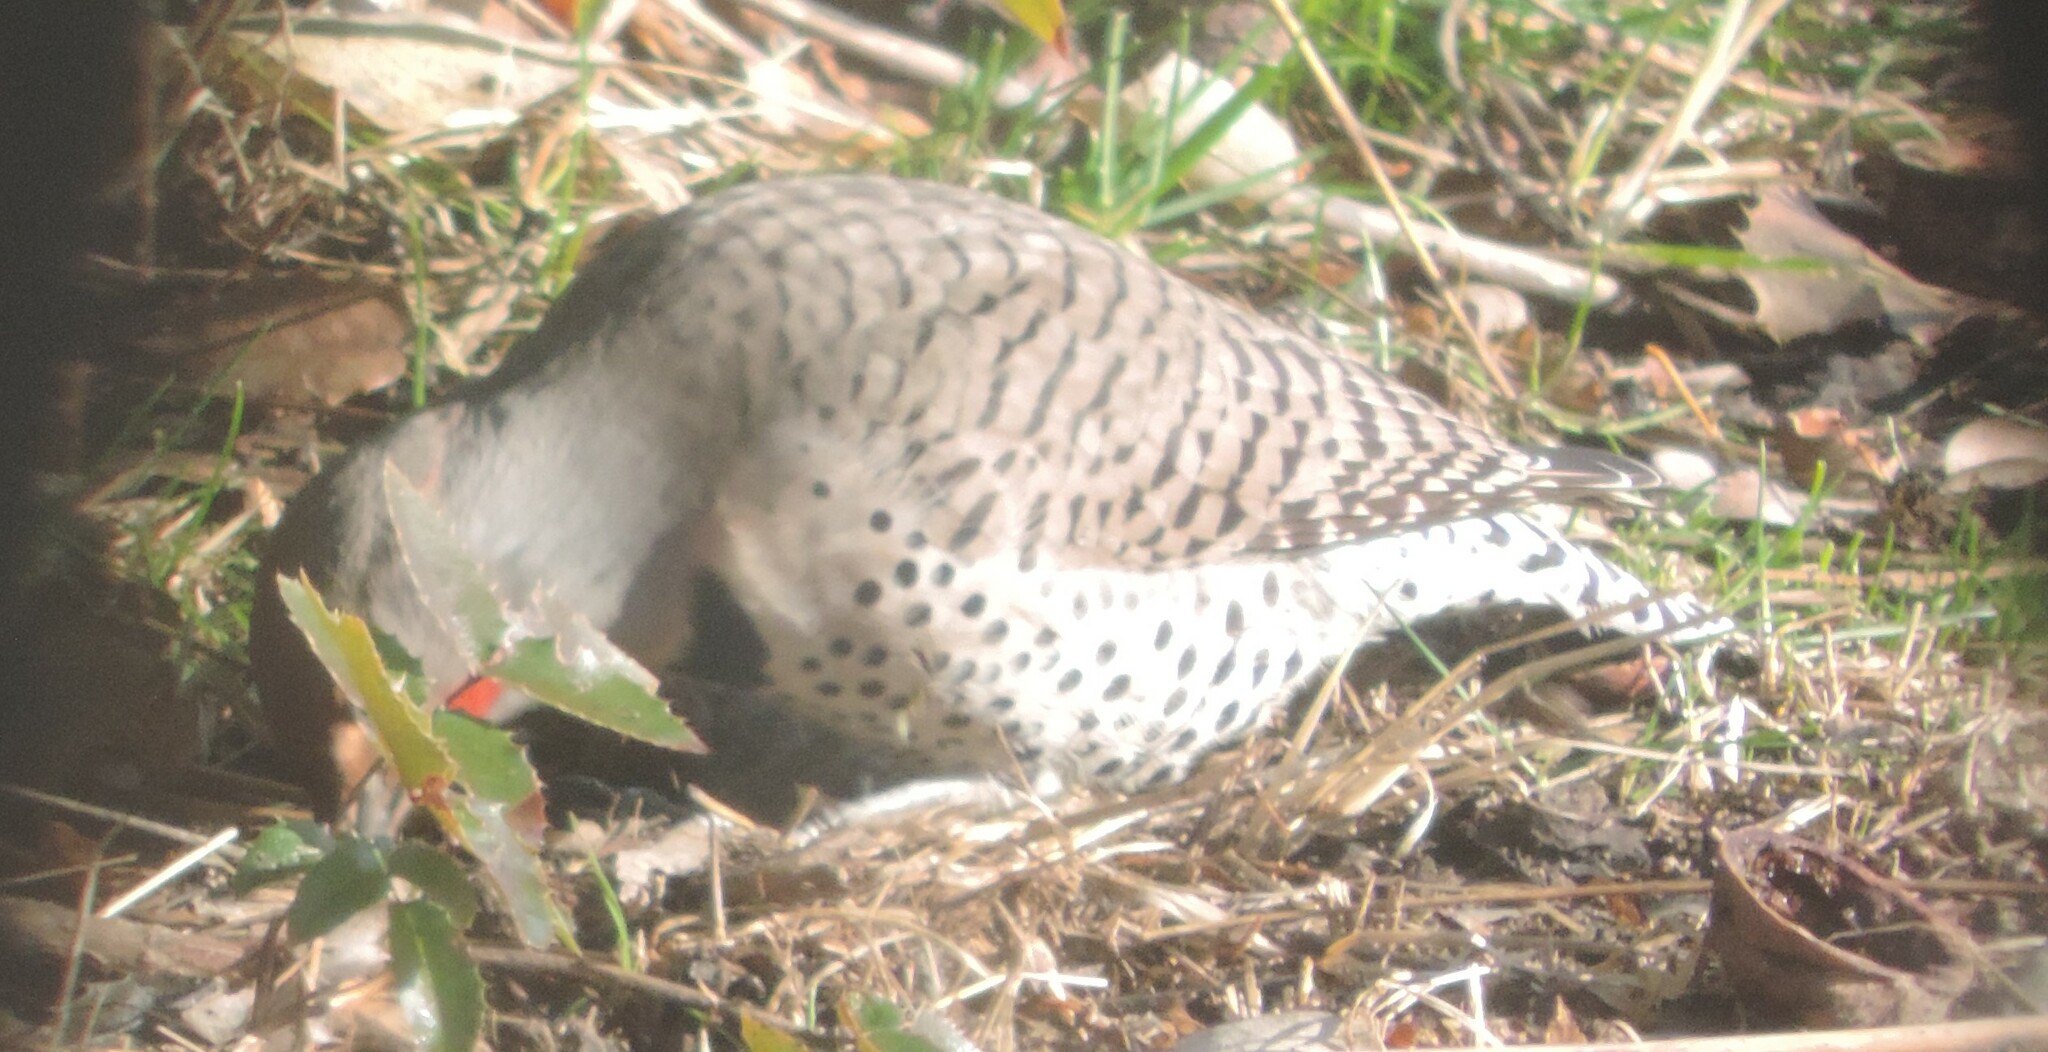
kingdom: Animalia
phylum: Chordata
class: Aves
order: Piciformes
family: Picidae
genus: Colaptes
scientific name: Colaptes auratus
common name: Northern flicker
